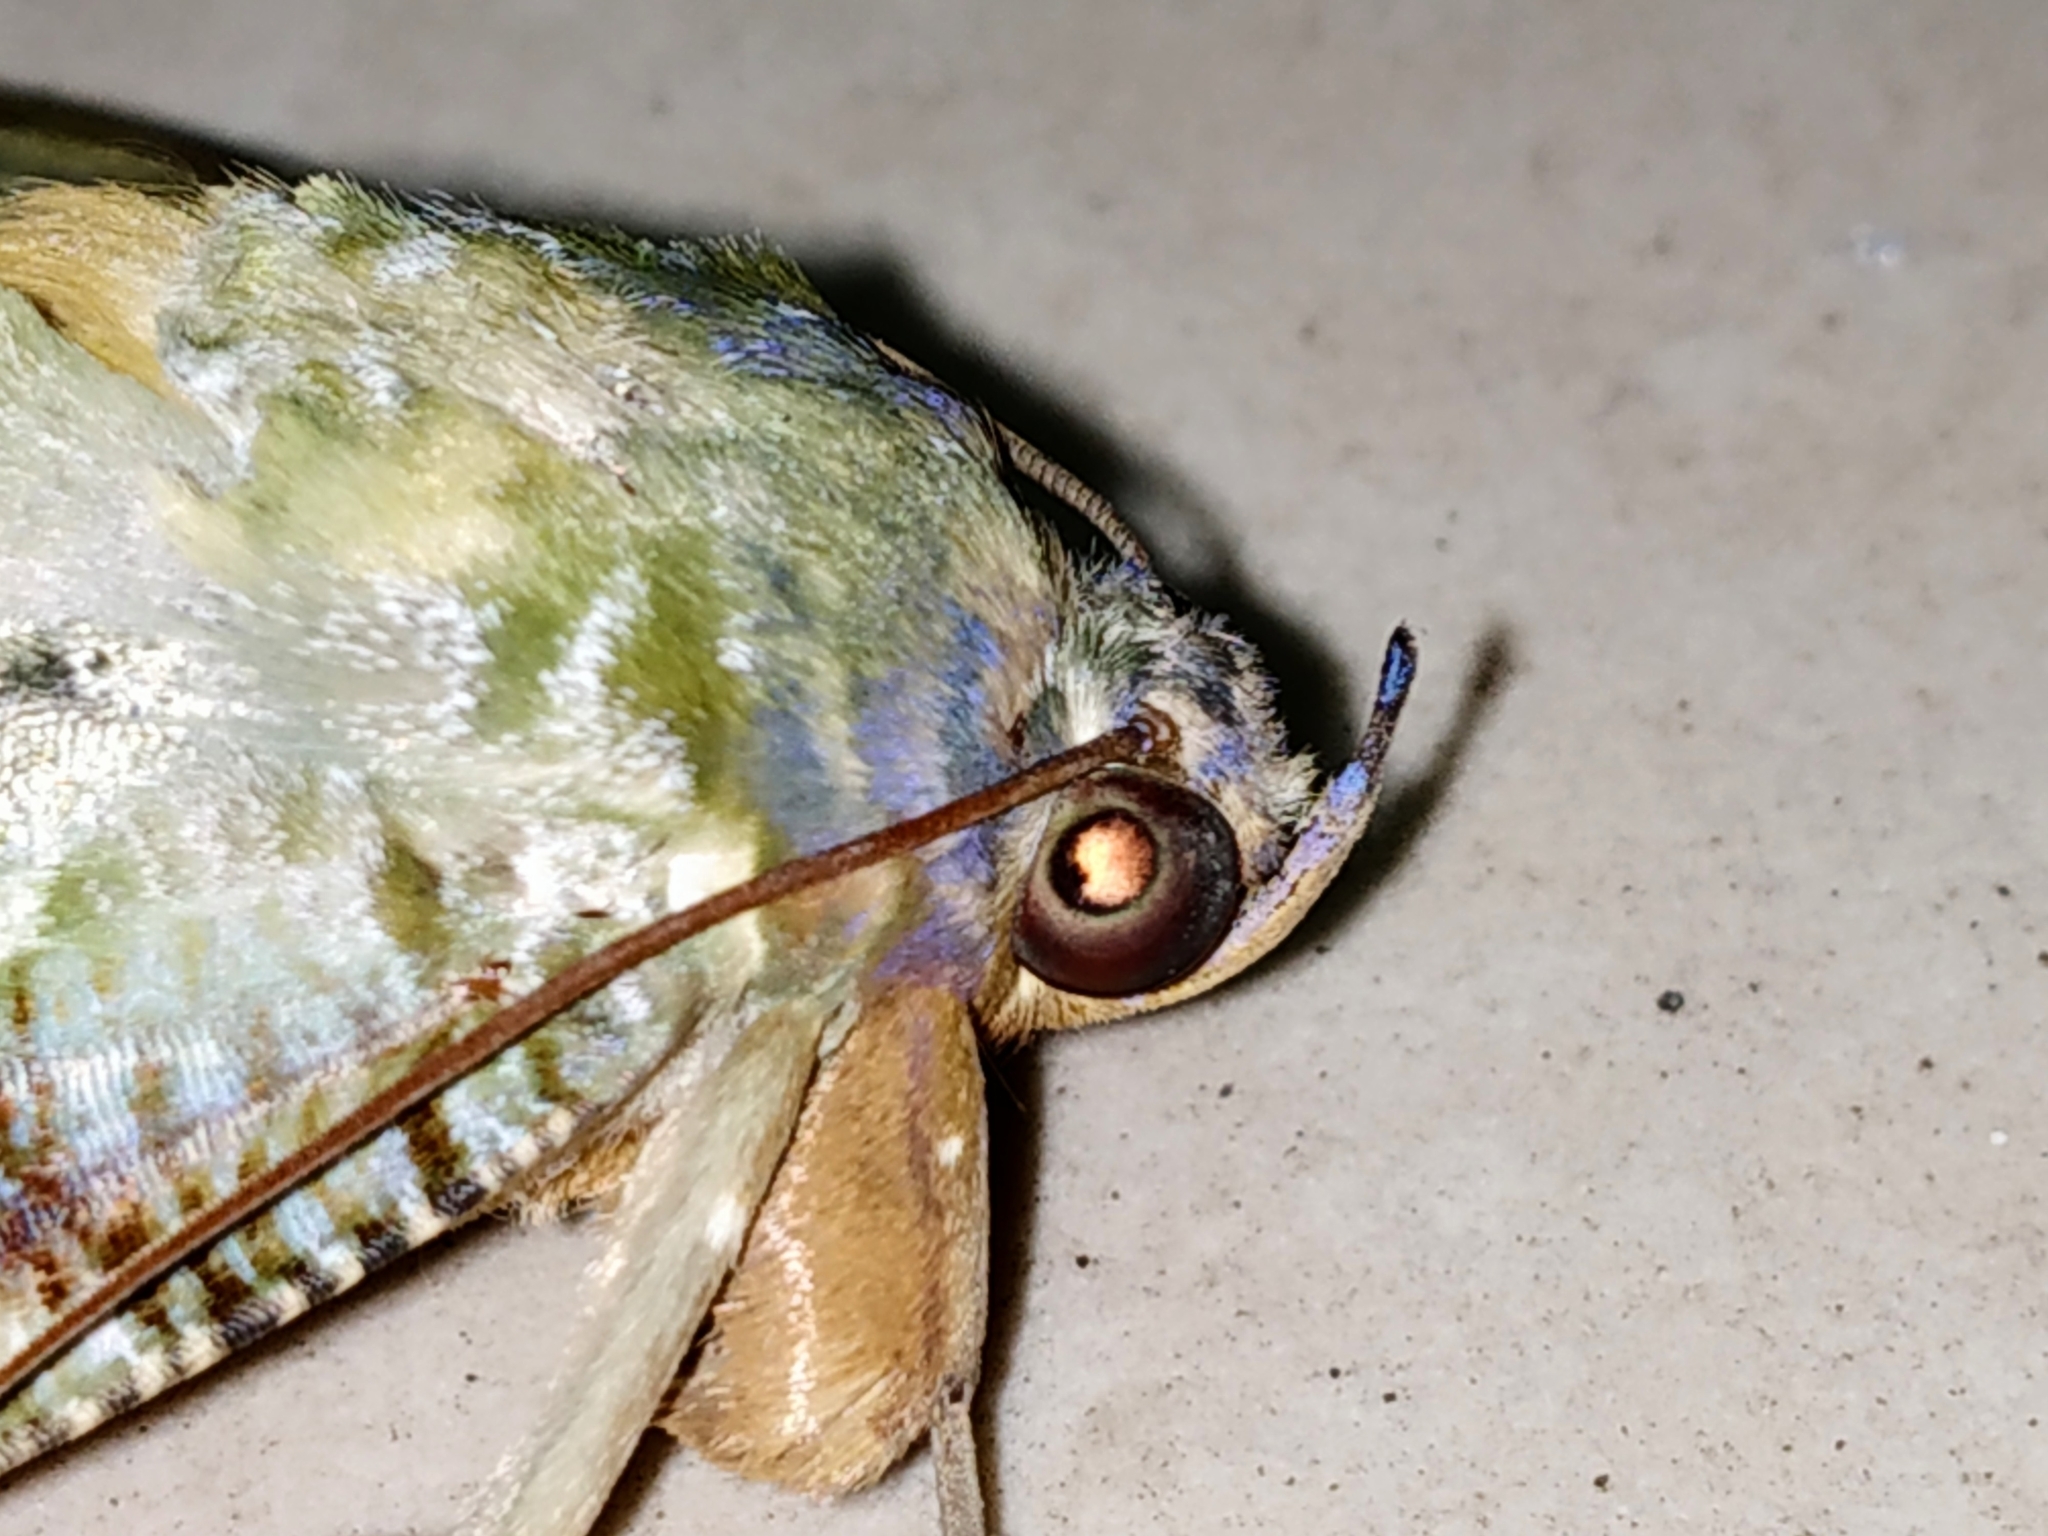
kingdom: Animalia
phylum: Arthropoda
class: Insecta
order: Lepidoptera
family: Erebidae
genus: Eudocima
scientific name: Eudocima materna
